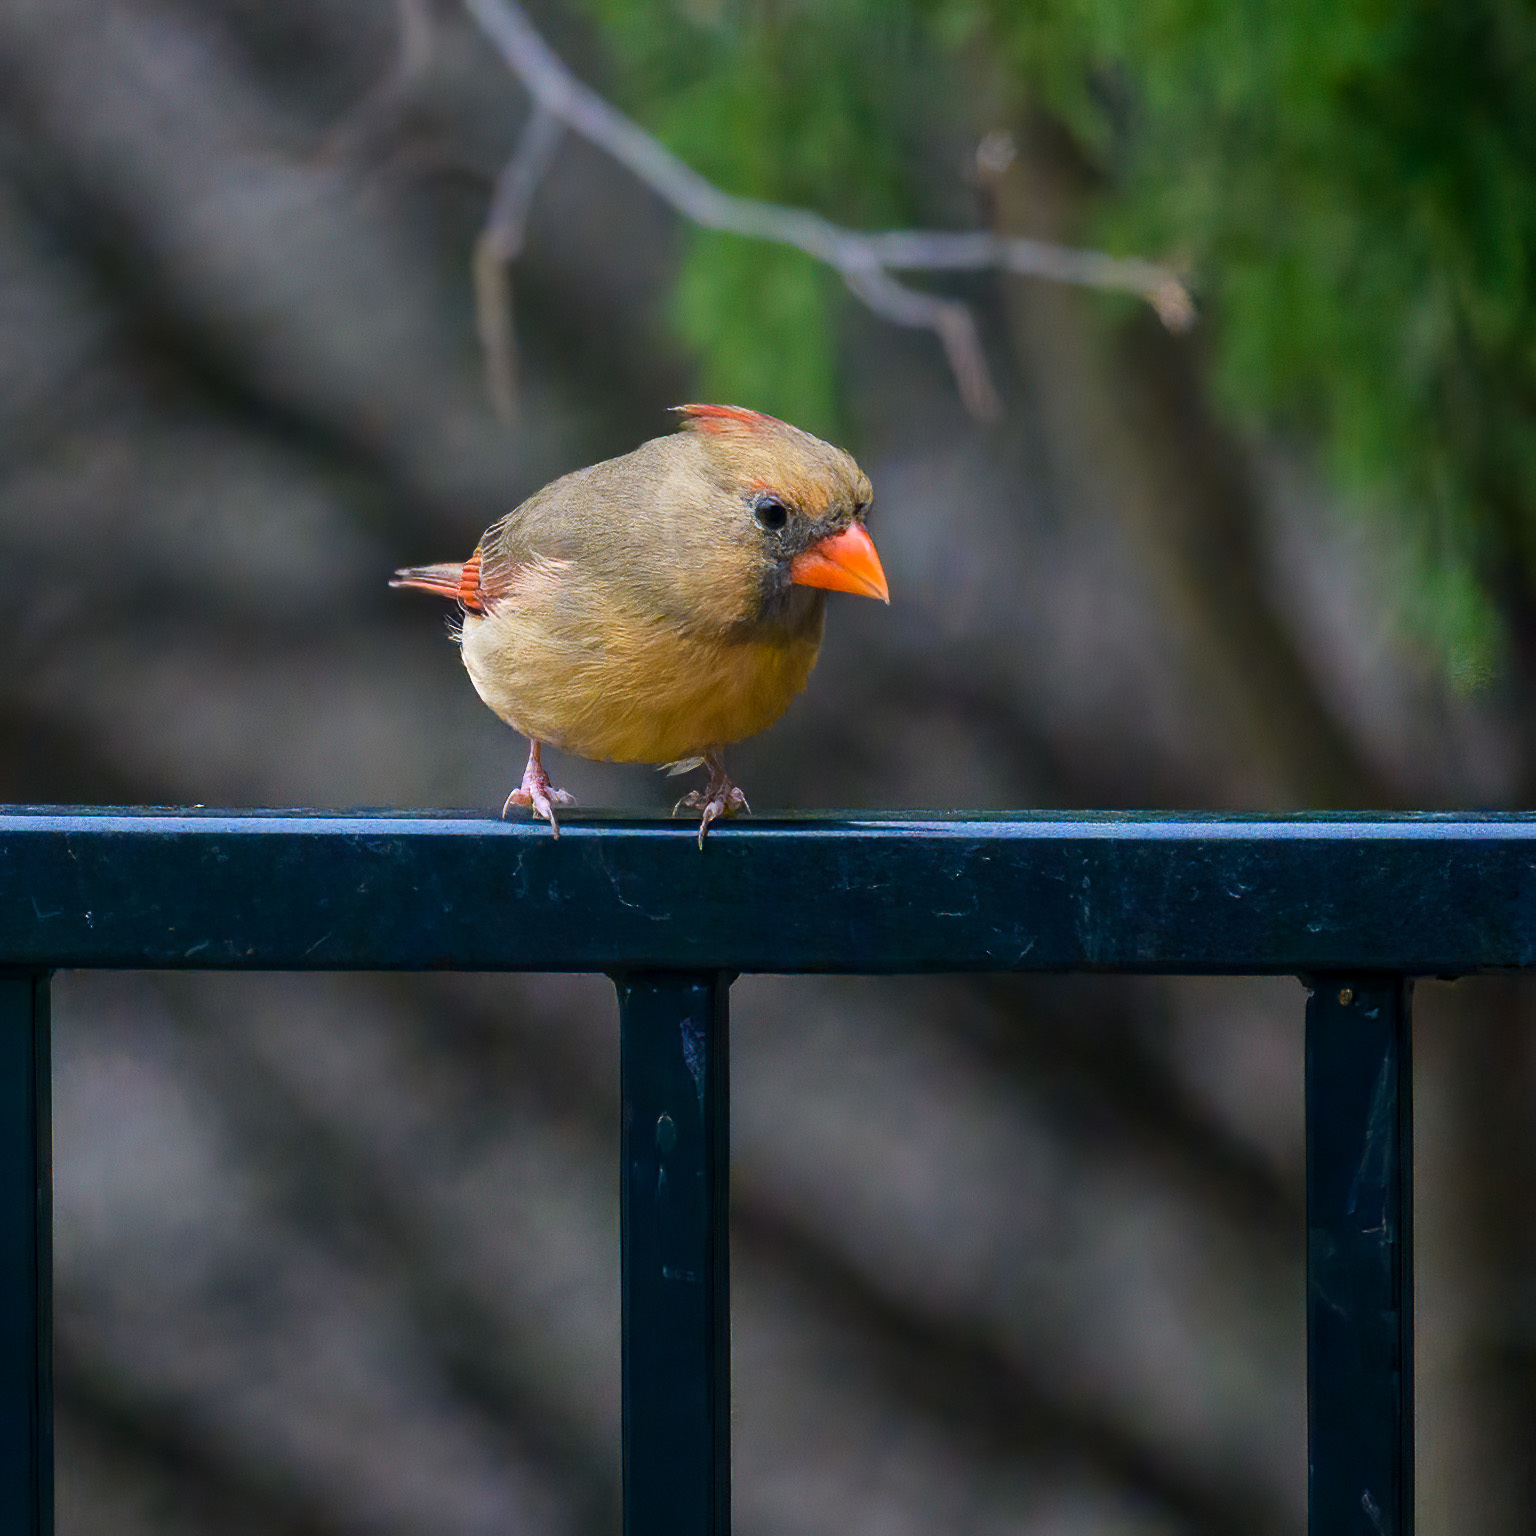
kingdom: Animalia
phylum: Chordata
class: Aves
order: Passeriformes
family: Cardinalidae
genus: Cardinalis
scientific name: Cardinalis cardinalis
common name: Northern cardinal
